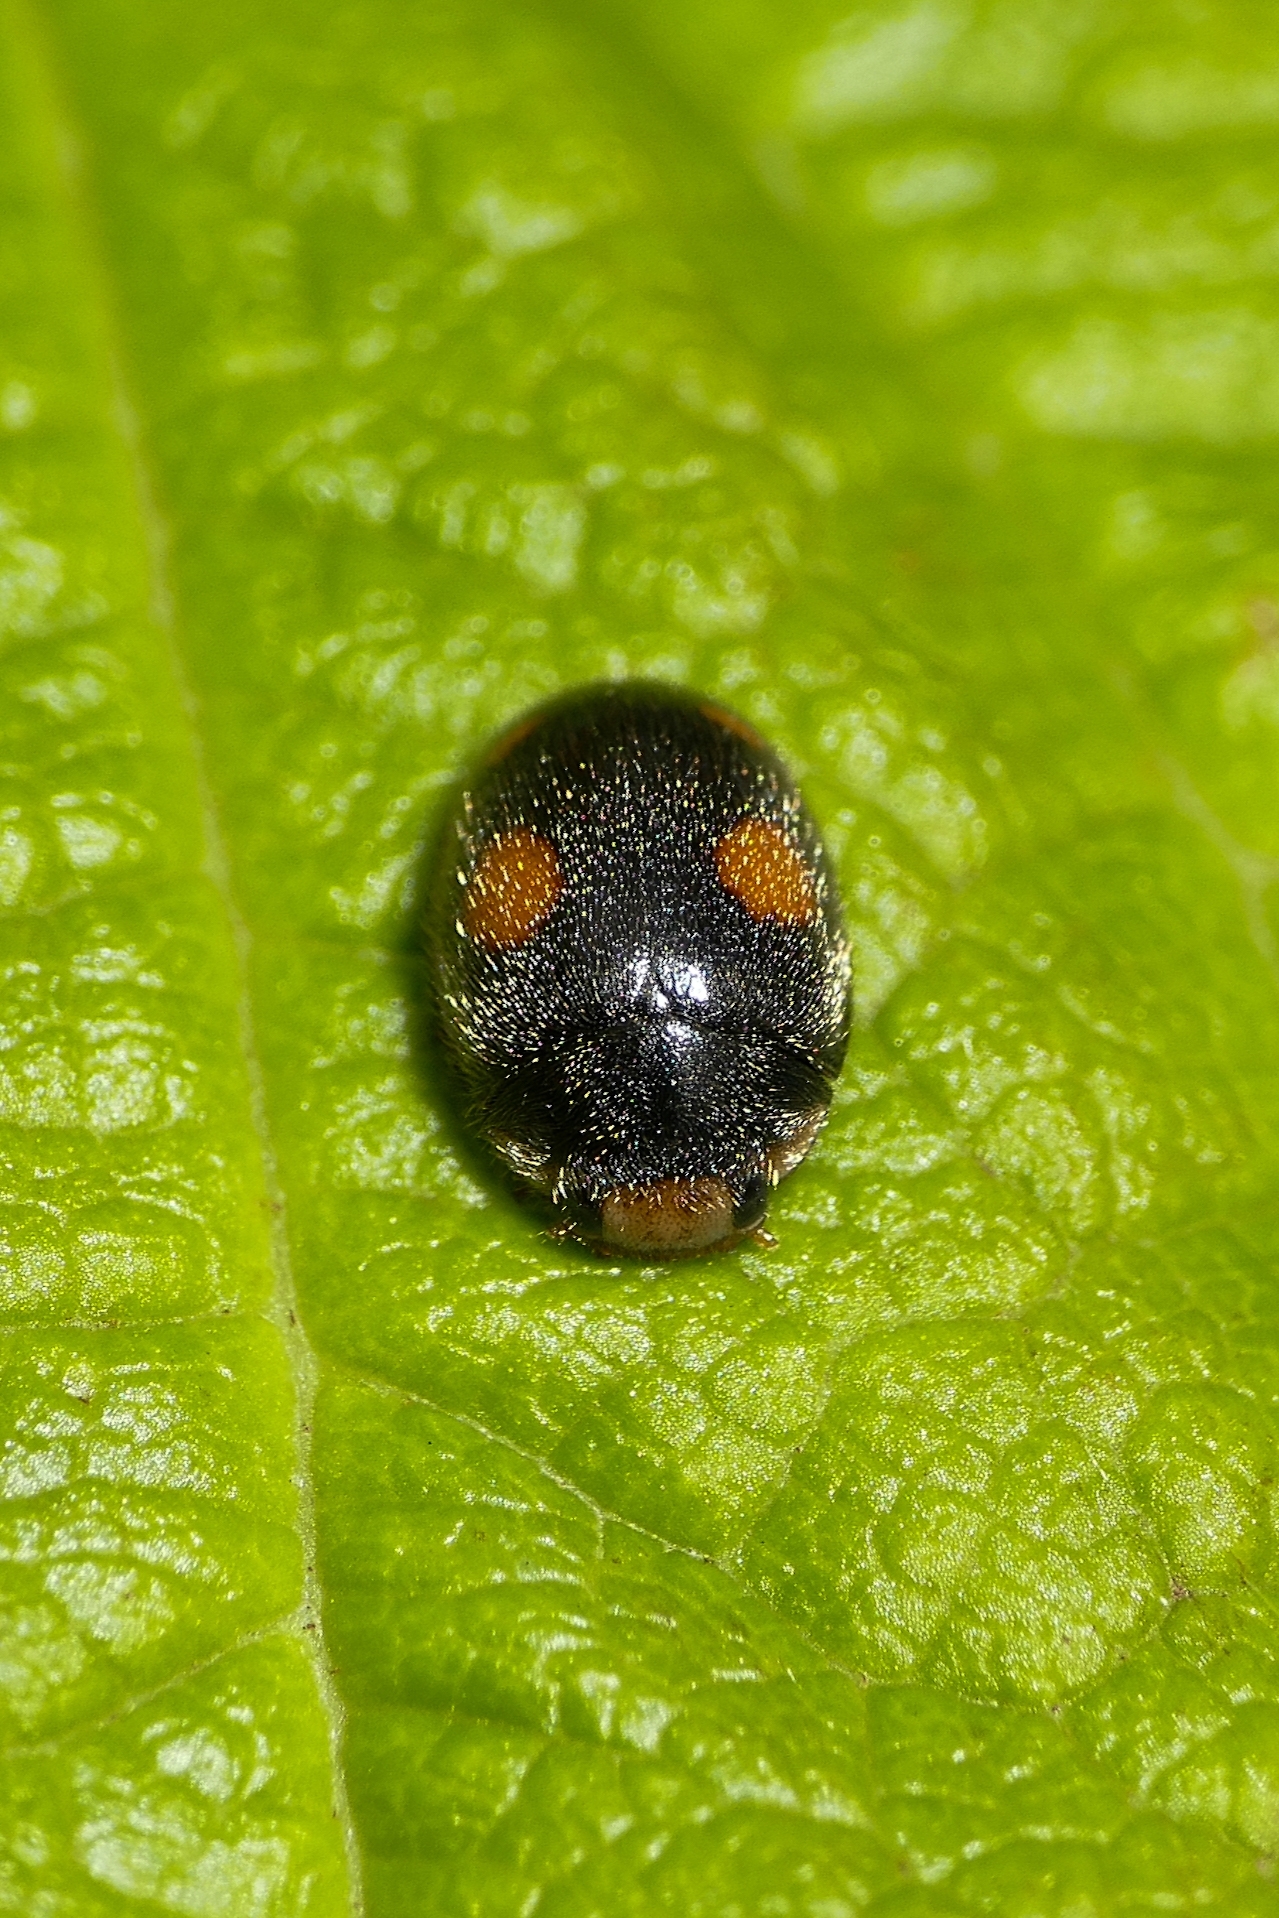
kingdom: Animalia
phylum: Arthropoda
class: Insecta
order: Coleoptera
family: Coccinellidae
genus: Platynaspis
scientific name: Platynaspis luteorubra
